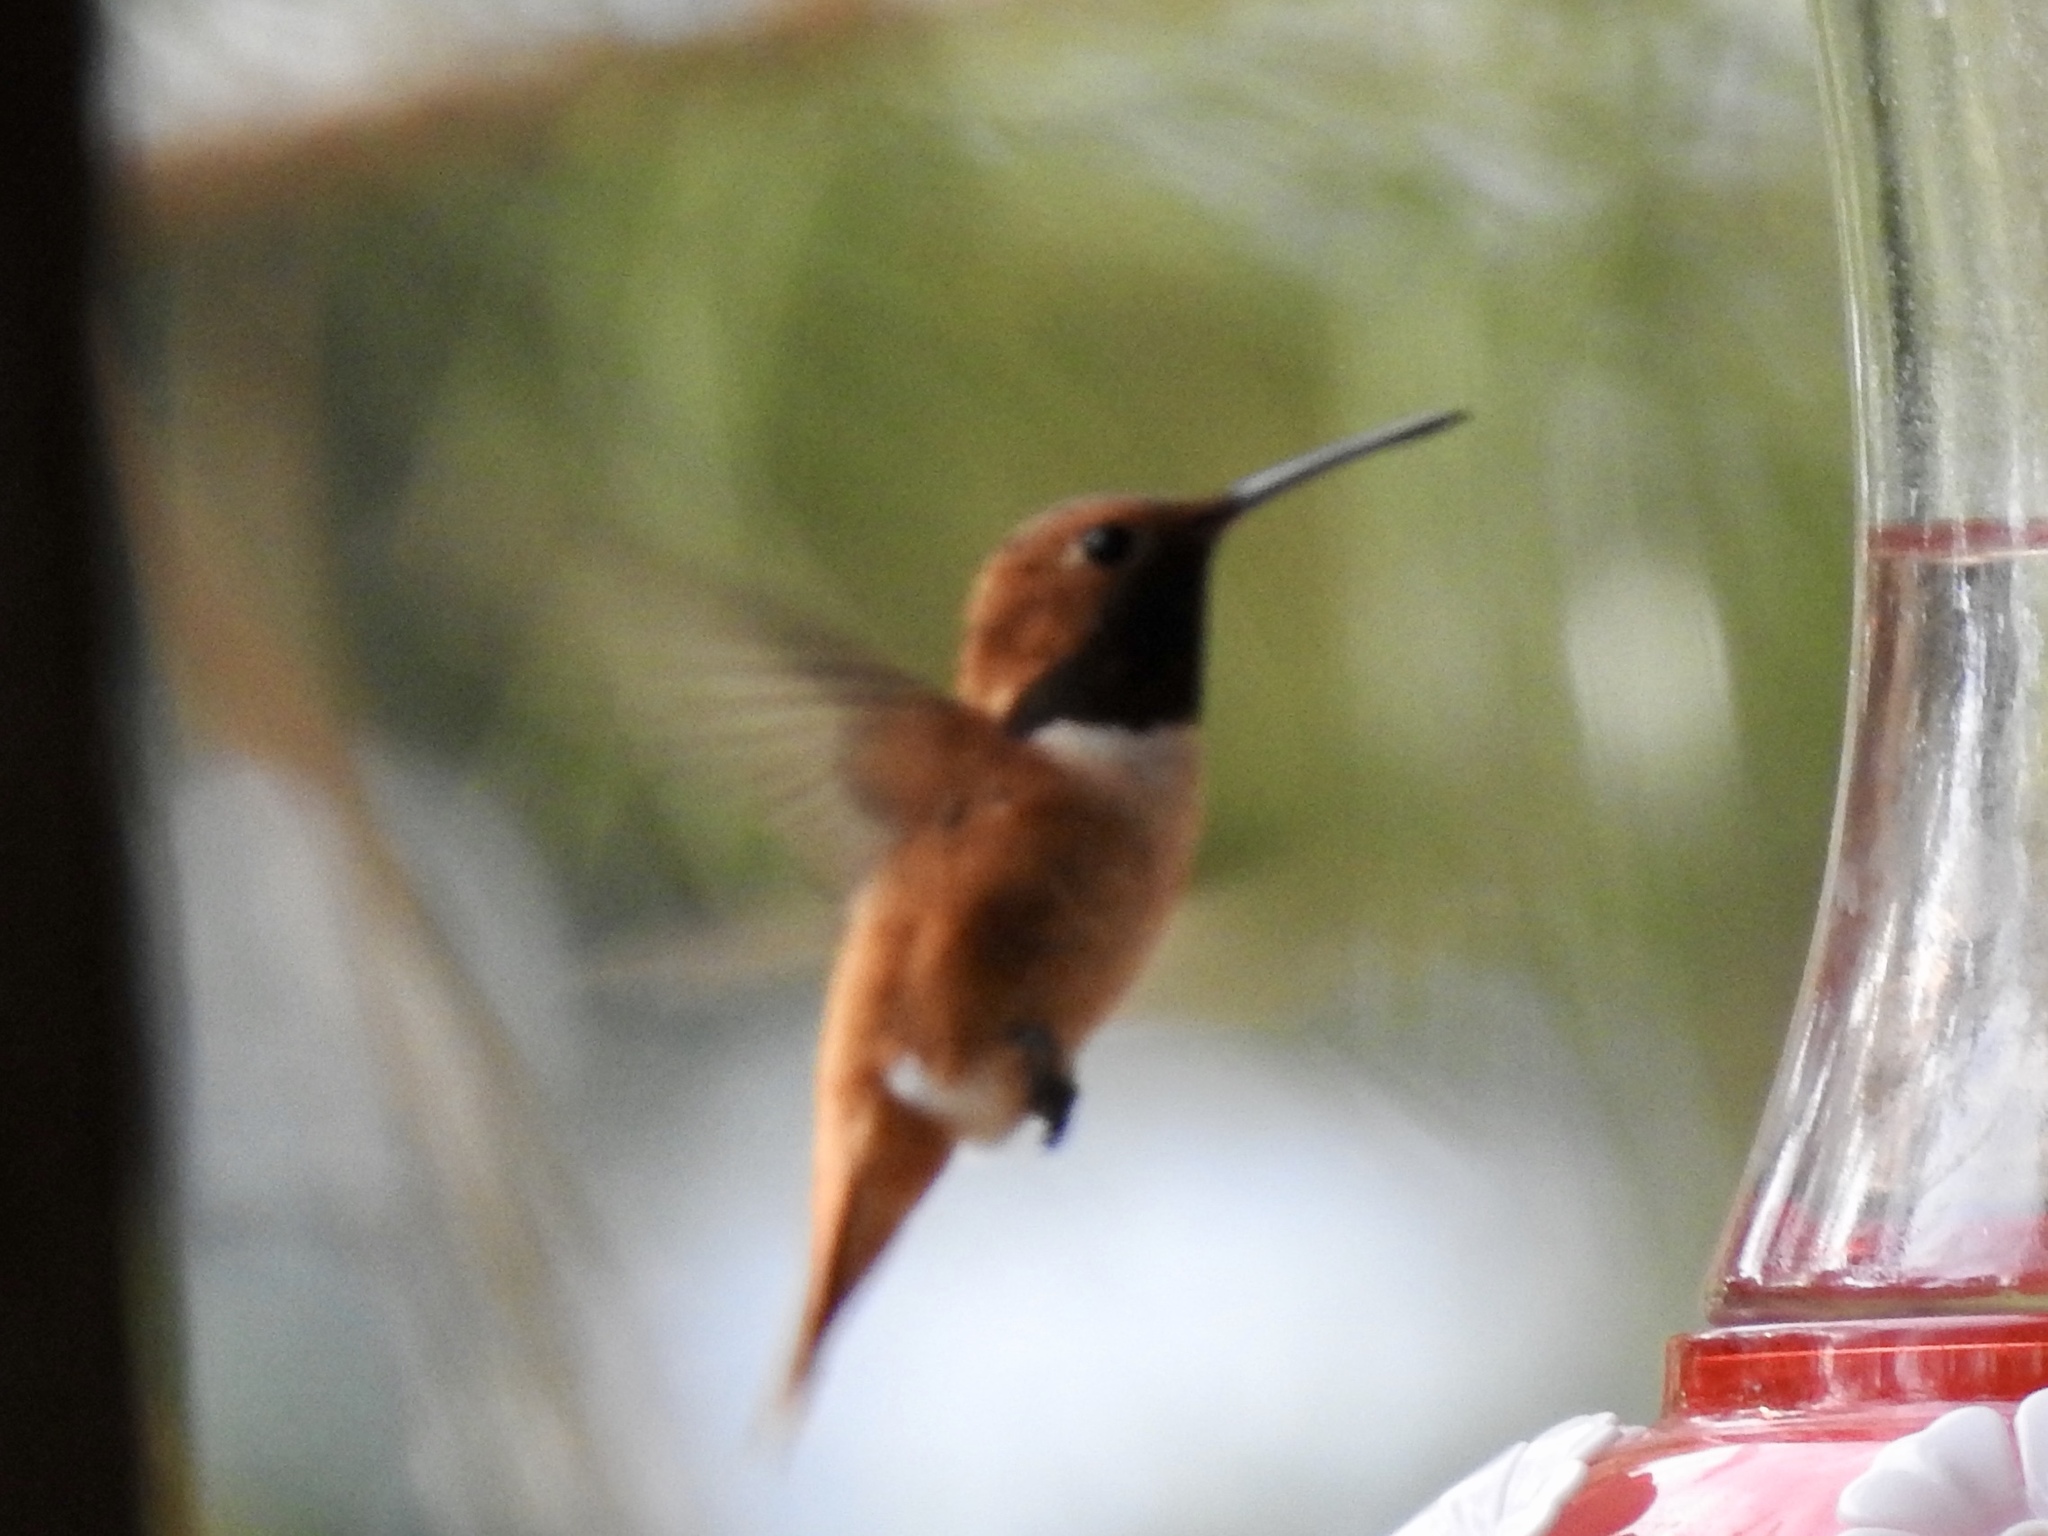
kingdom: Animalia
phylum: Chordata
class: Aves
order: Apodiformes
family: Trochilidae
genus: Selasphorus
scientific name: Selasphorus rufus
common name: Rufous hummingbird
